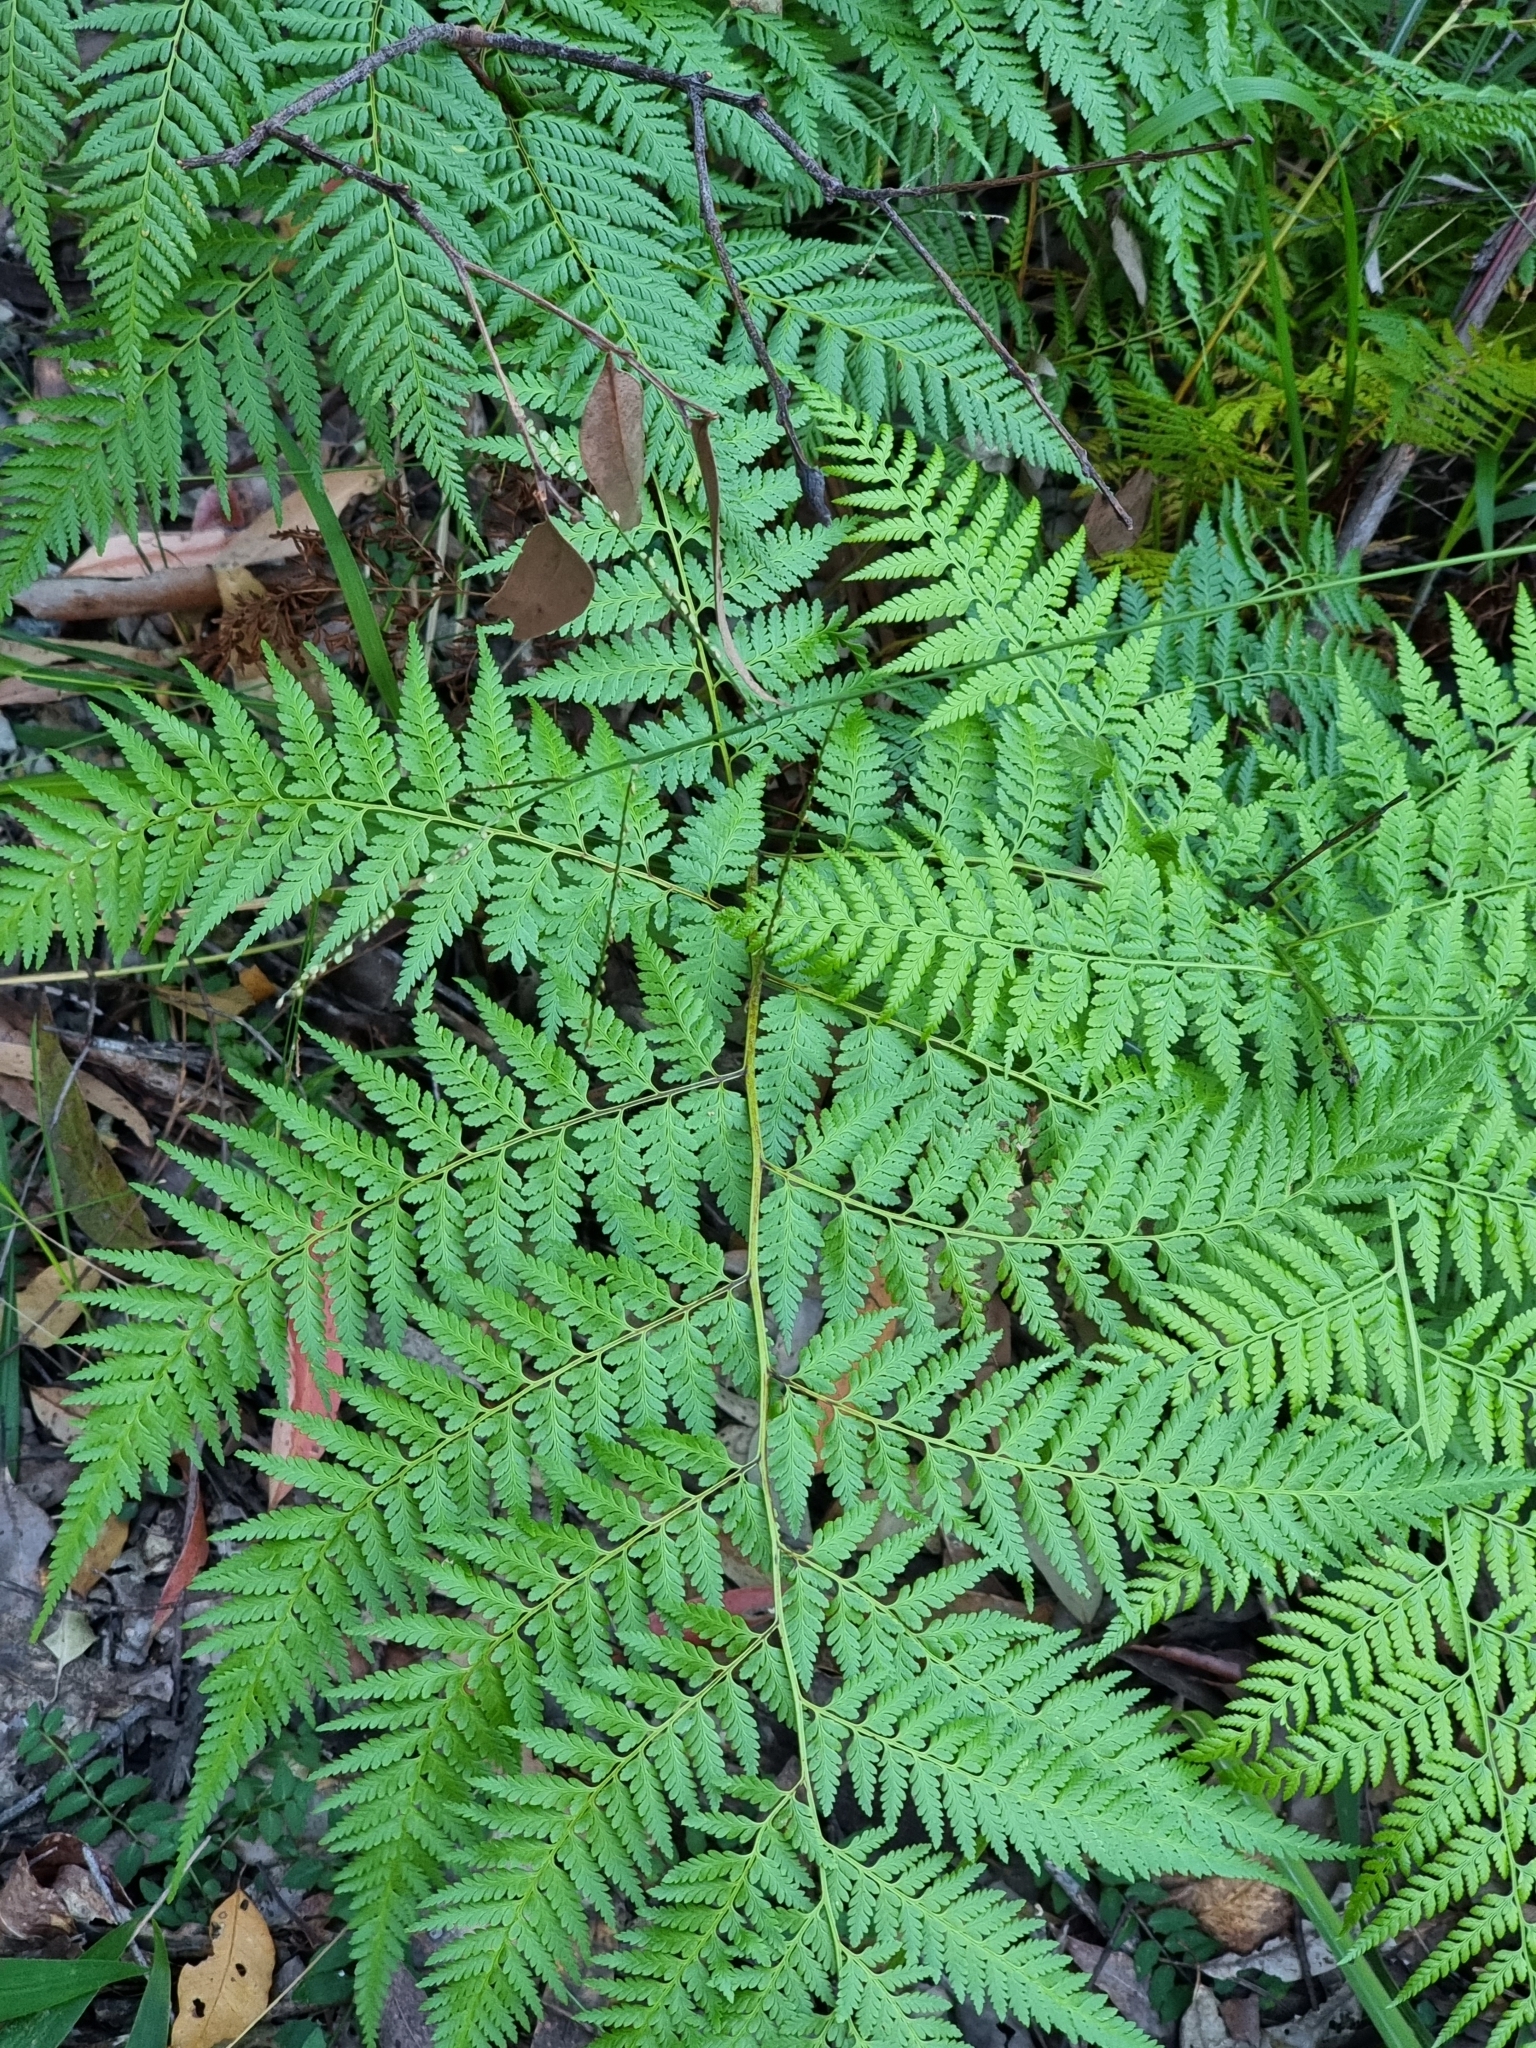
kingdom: Plantae
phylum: Tracheophyta
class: Polypodiopsida
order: Cyatheales
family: Dicksoniaceae
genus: Calochlaena
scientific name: Calochlaena dubia
